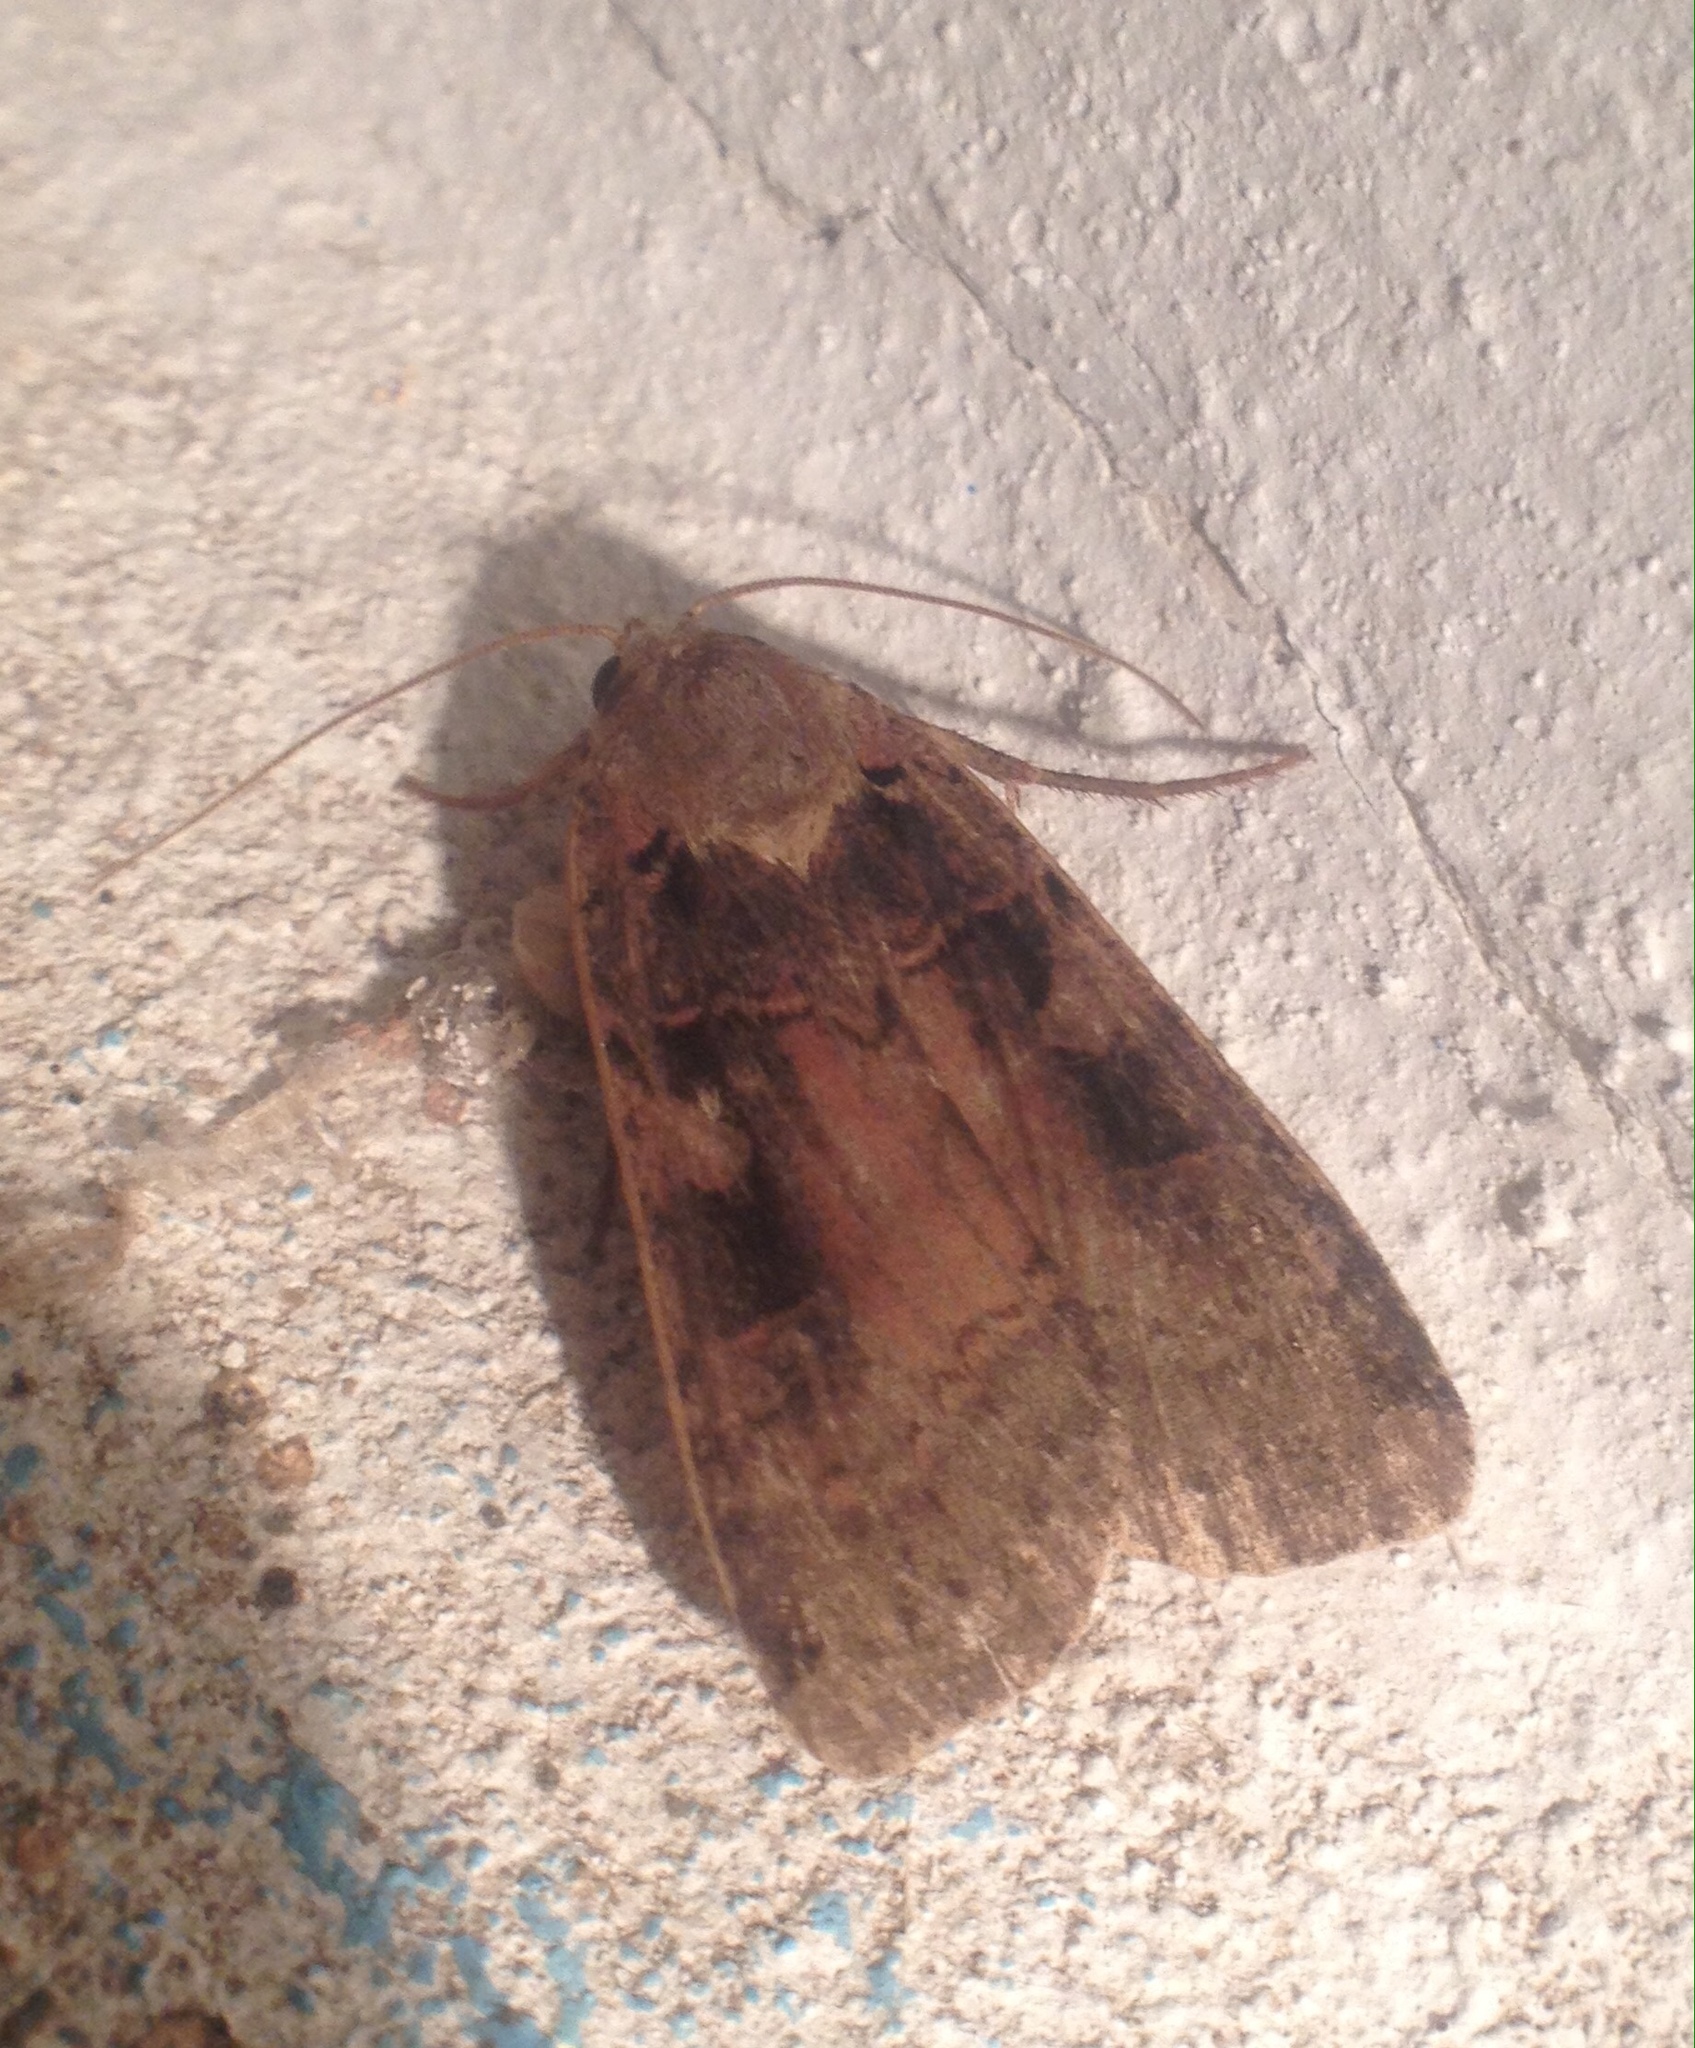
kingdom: Animalia
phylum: Arthropoda
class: Insecta
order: Lepidoptera
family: Noctuidae
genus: Xestia
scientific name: Xestia ditrapezium
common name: Triple-spotted clay
